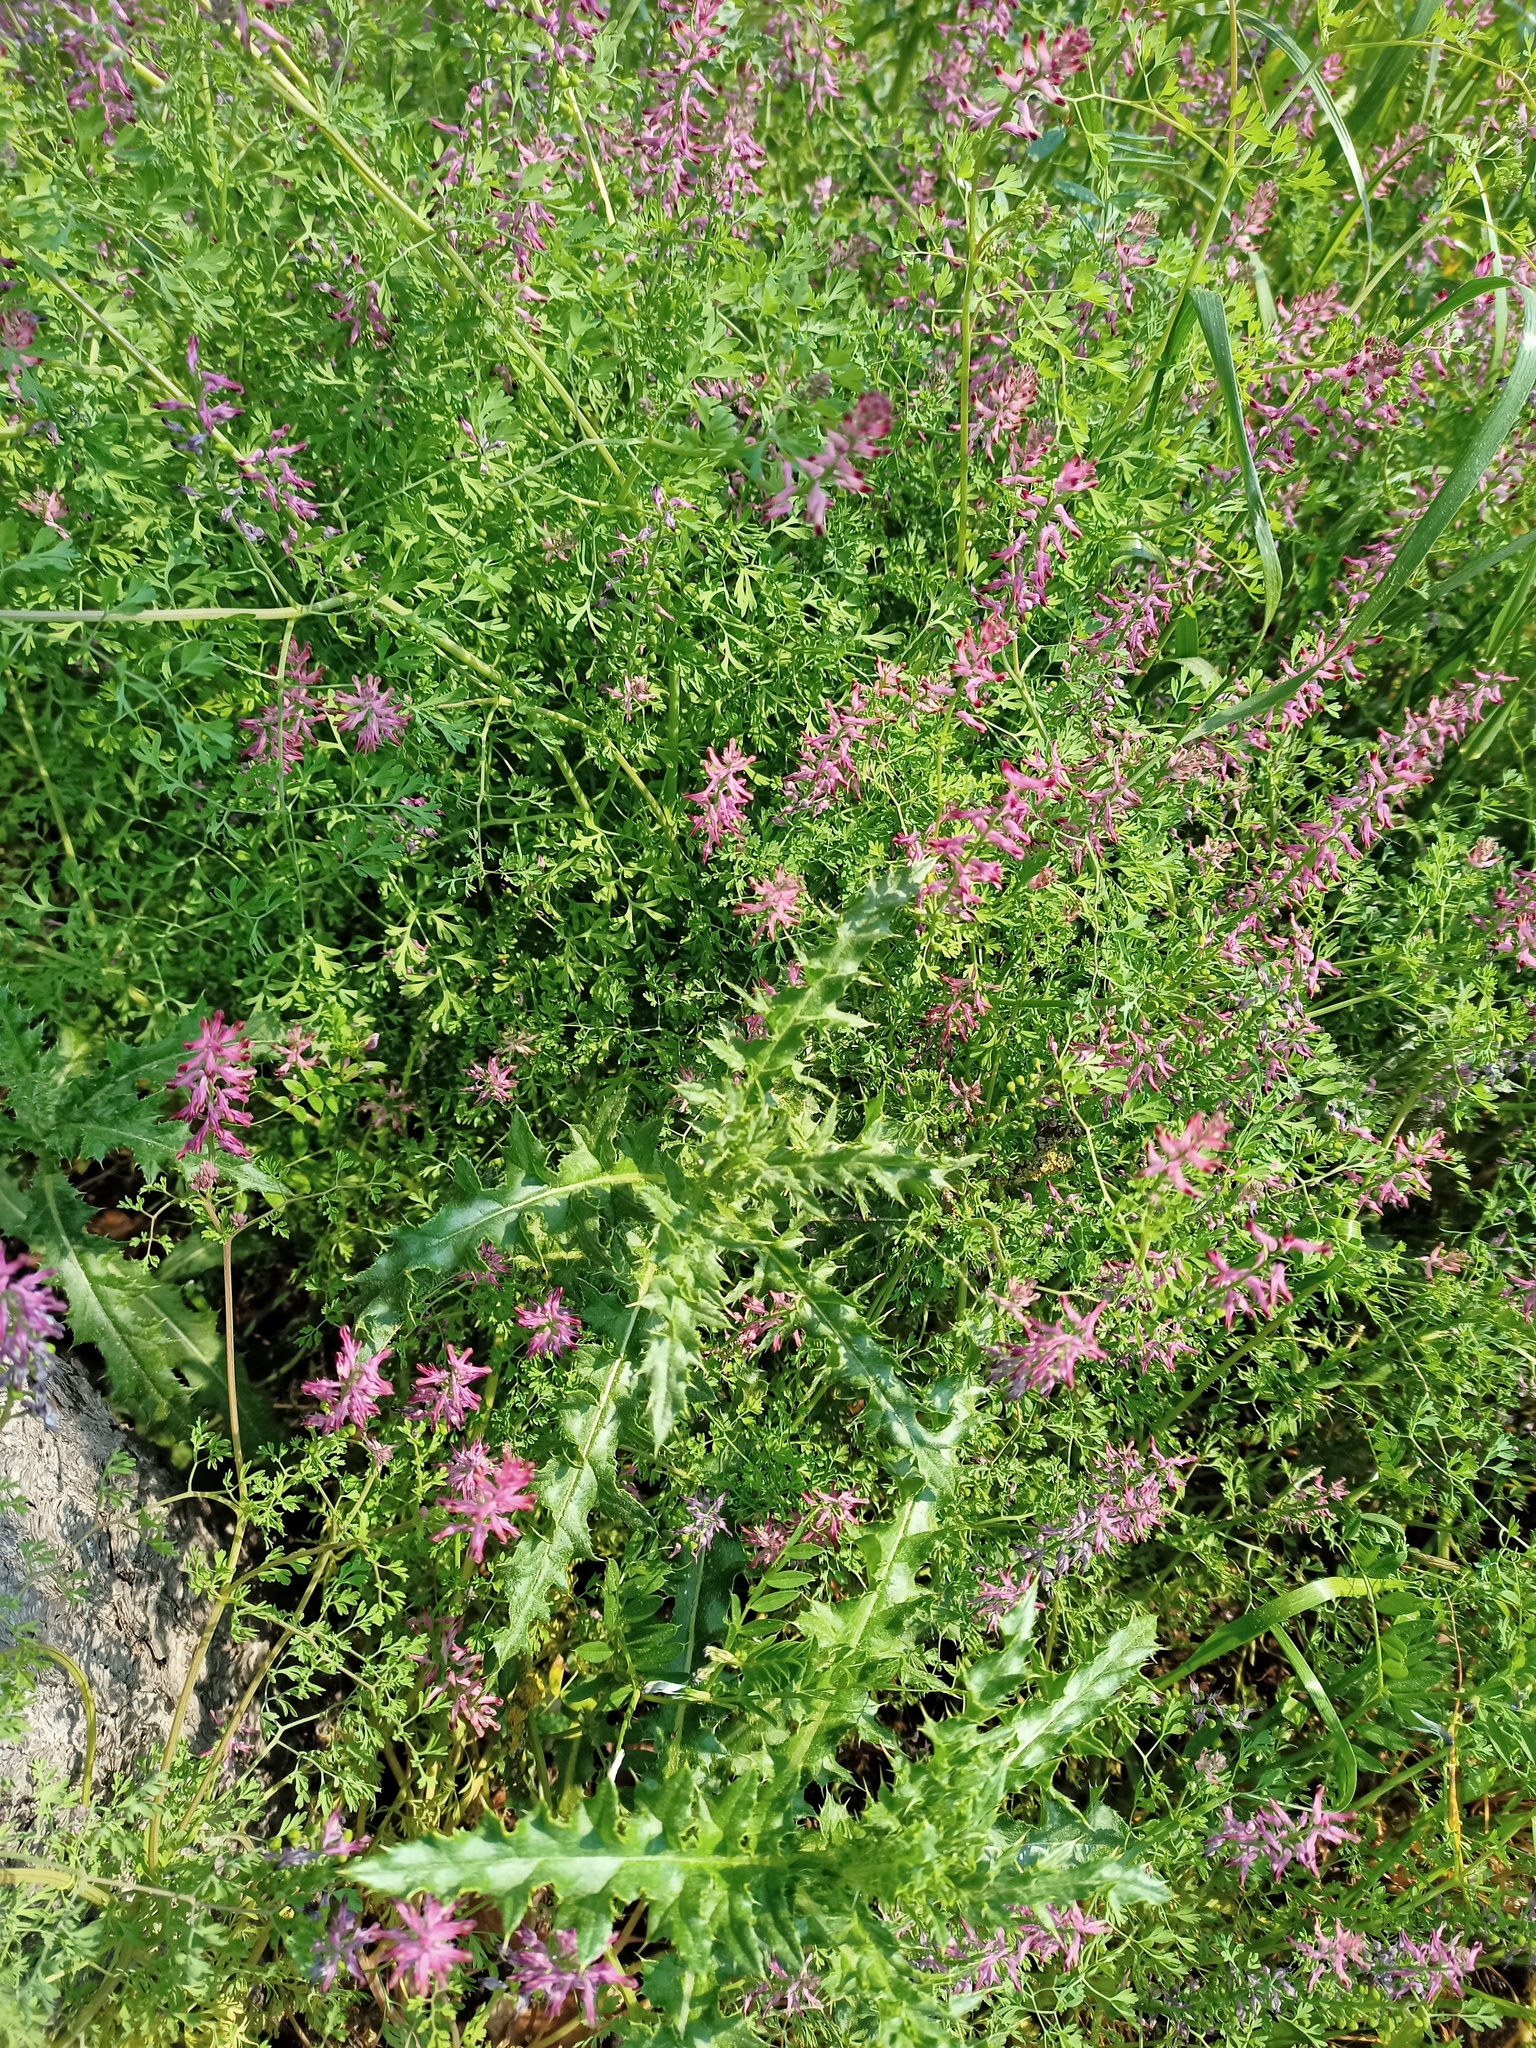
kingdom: Plantae
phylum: Tracheophyta
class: Magnoliopsida
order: Ranunculales
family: Papaveraceae
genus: Fumaria
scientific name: Fumaria officinalis
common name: Common fumitory
